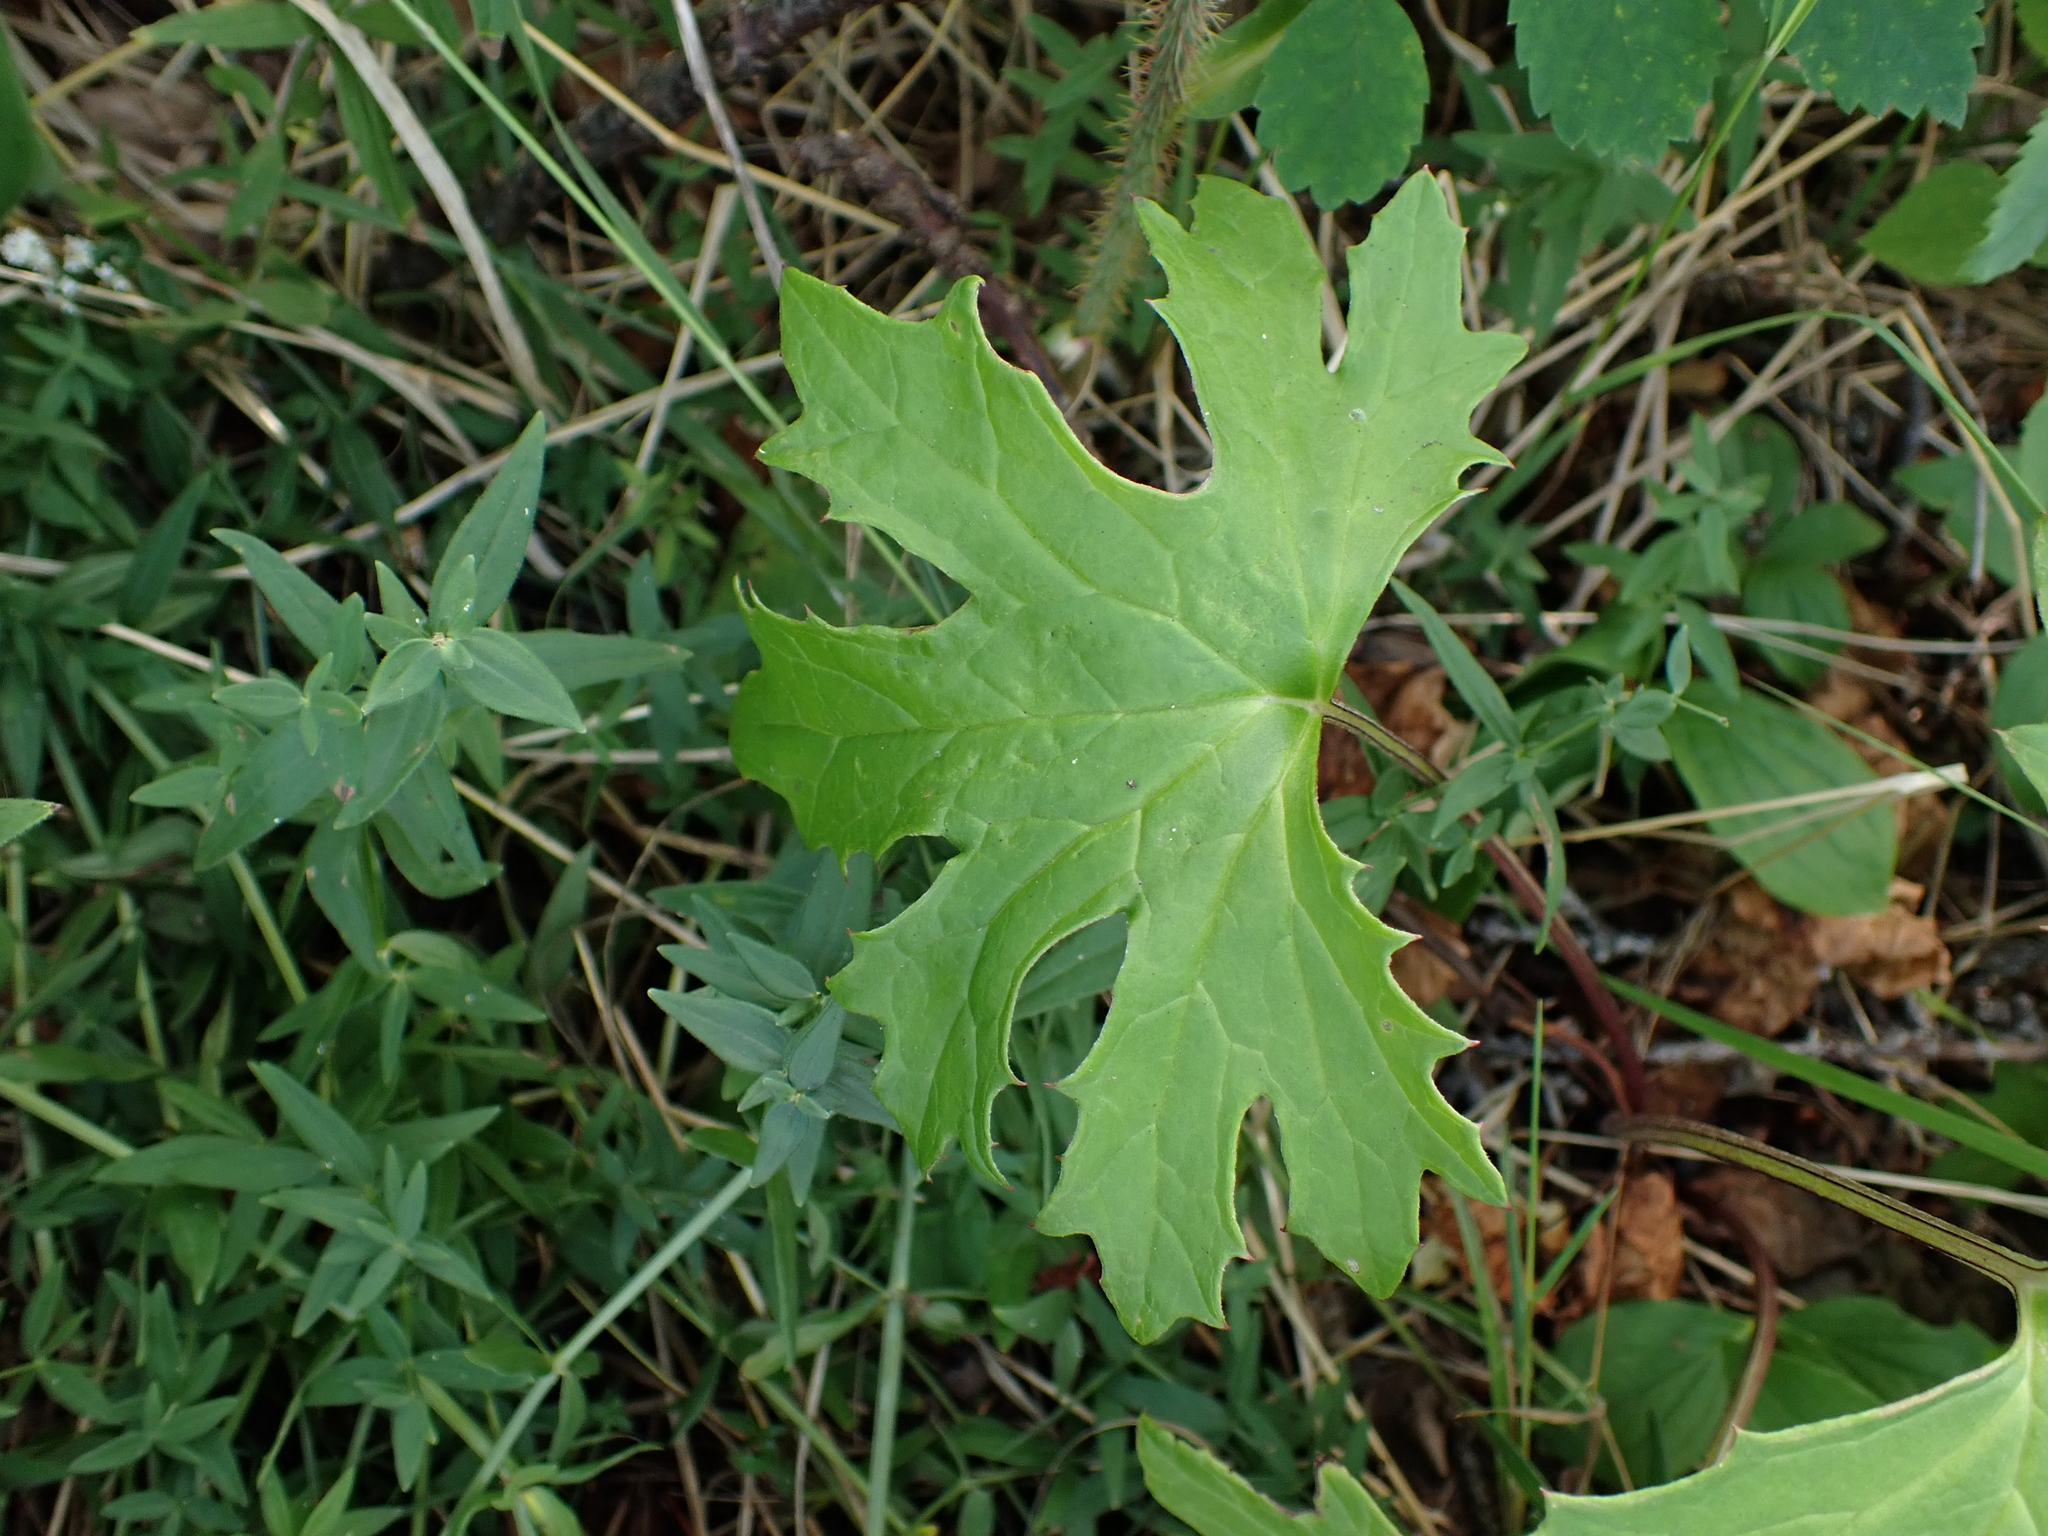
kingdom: Plantae
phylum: Tracheophyta
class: Magnoliopsida
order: Asterales
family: Asteraceae
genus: Petasites
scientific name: Petasites frigidus
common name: Arctic butterbur
